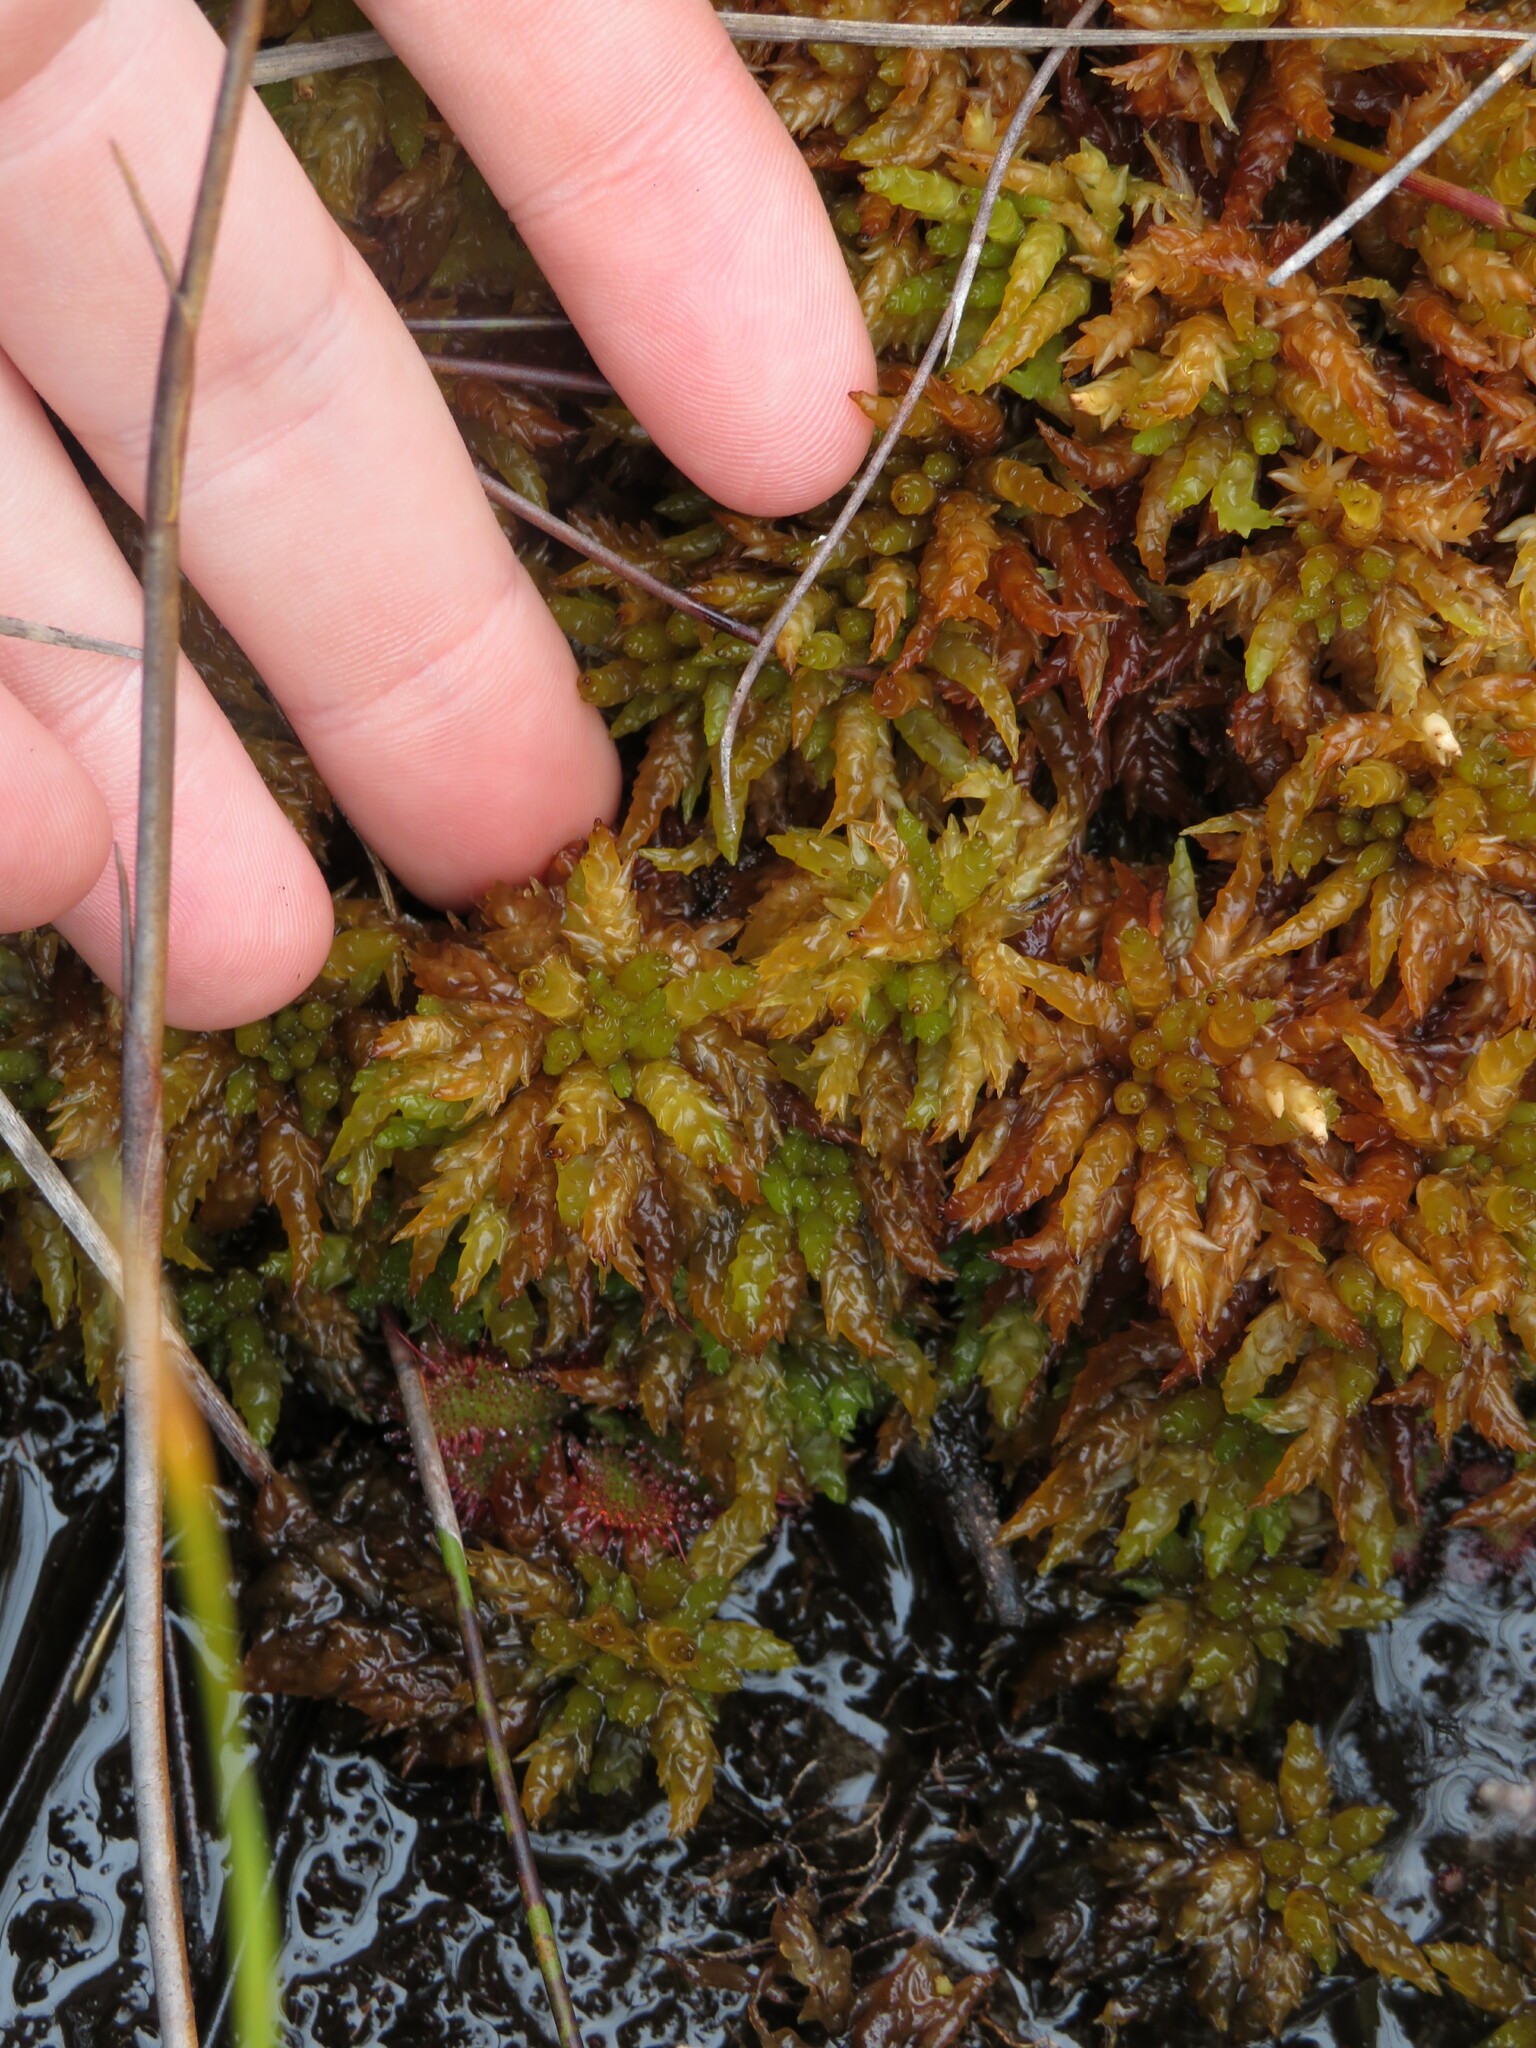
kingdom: Plantae
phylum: Bryophyta
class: Sphagnopsida
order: Sphagnales
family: Sphagnaceae
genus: Sphagnum
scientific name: Sphagnum perichaetiale
